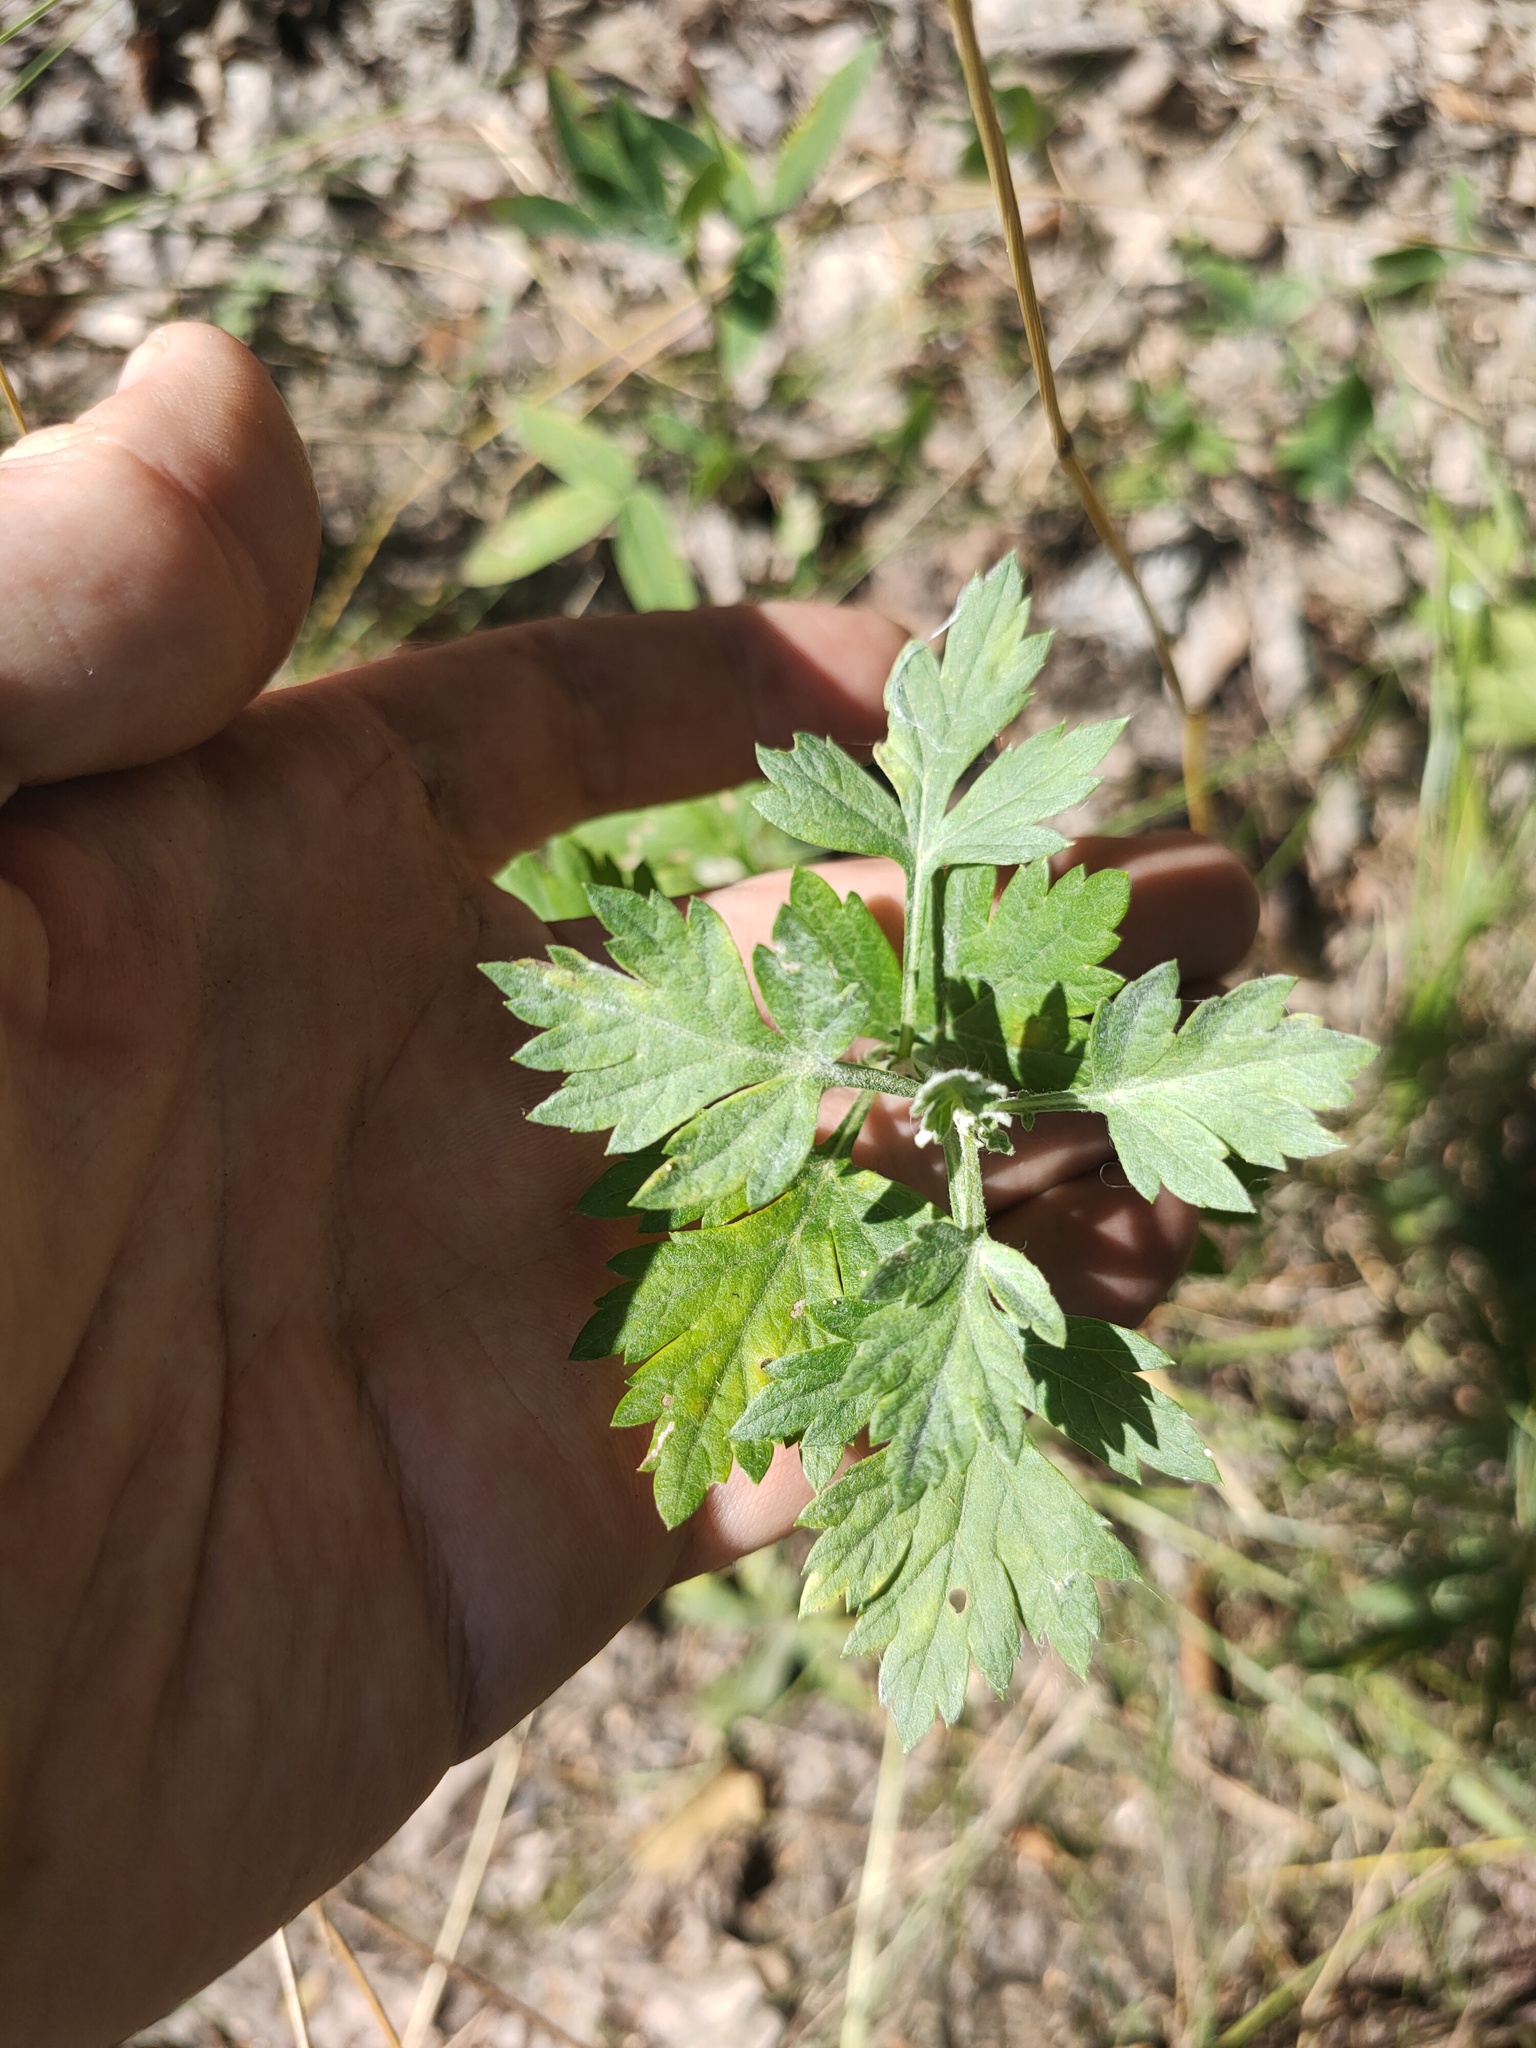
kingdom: Plantae
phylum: Tracheophyta
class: Magnoliopsida
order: Asterales
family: Asteraceae
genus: Artemisia
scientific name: Artemisia vulgaris
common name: Mugwort
